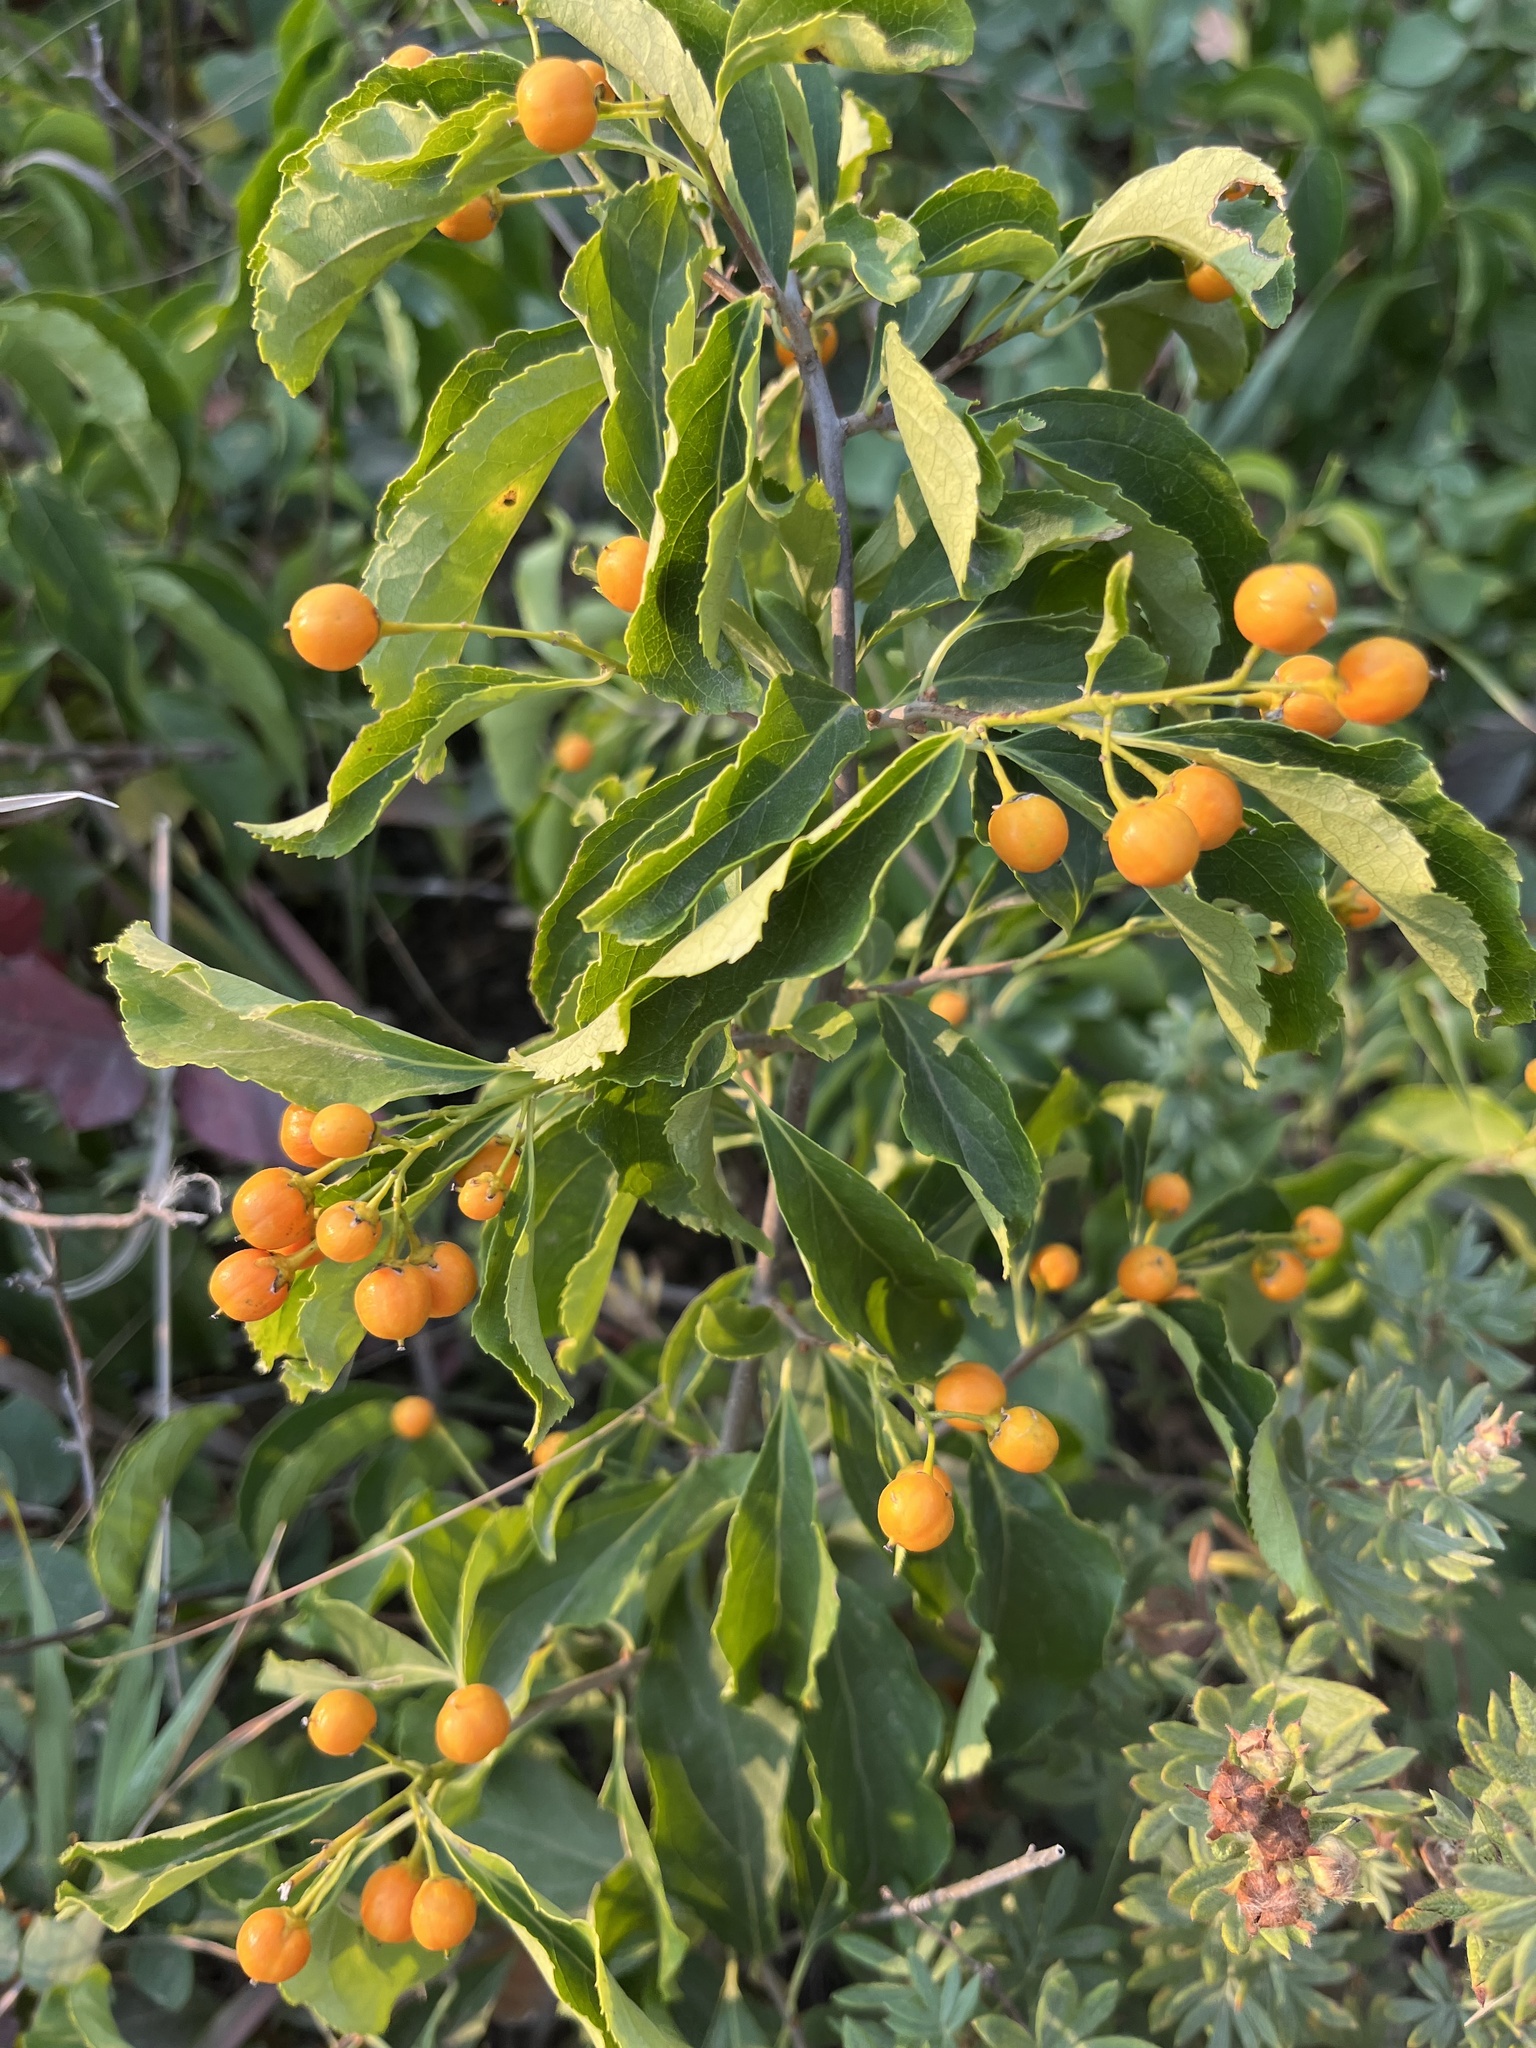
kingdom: Plantae
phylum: Tracheophyta
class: Magnoliopsida
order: Celastrales
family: Celastraceae
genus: Celastrus
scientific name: Celastrus scandens
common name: American bittersweet
